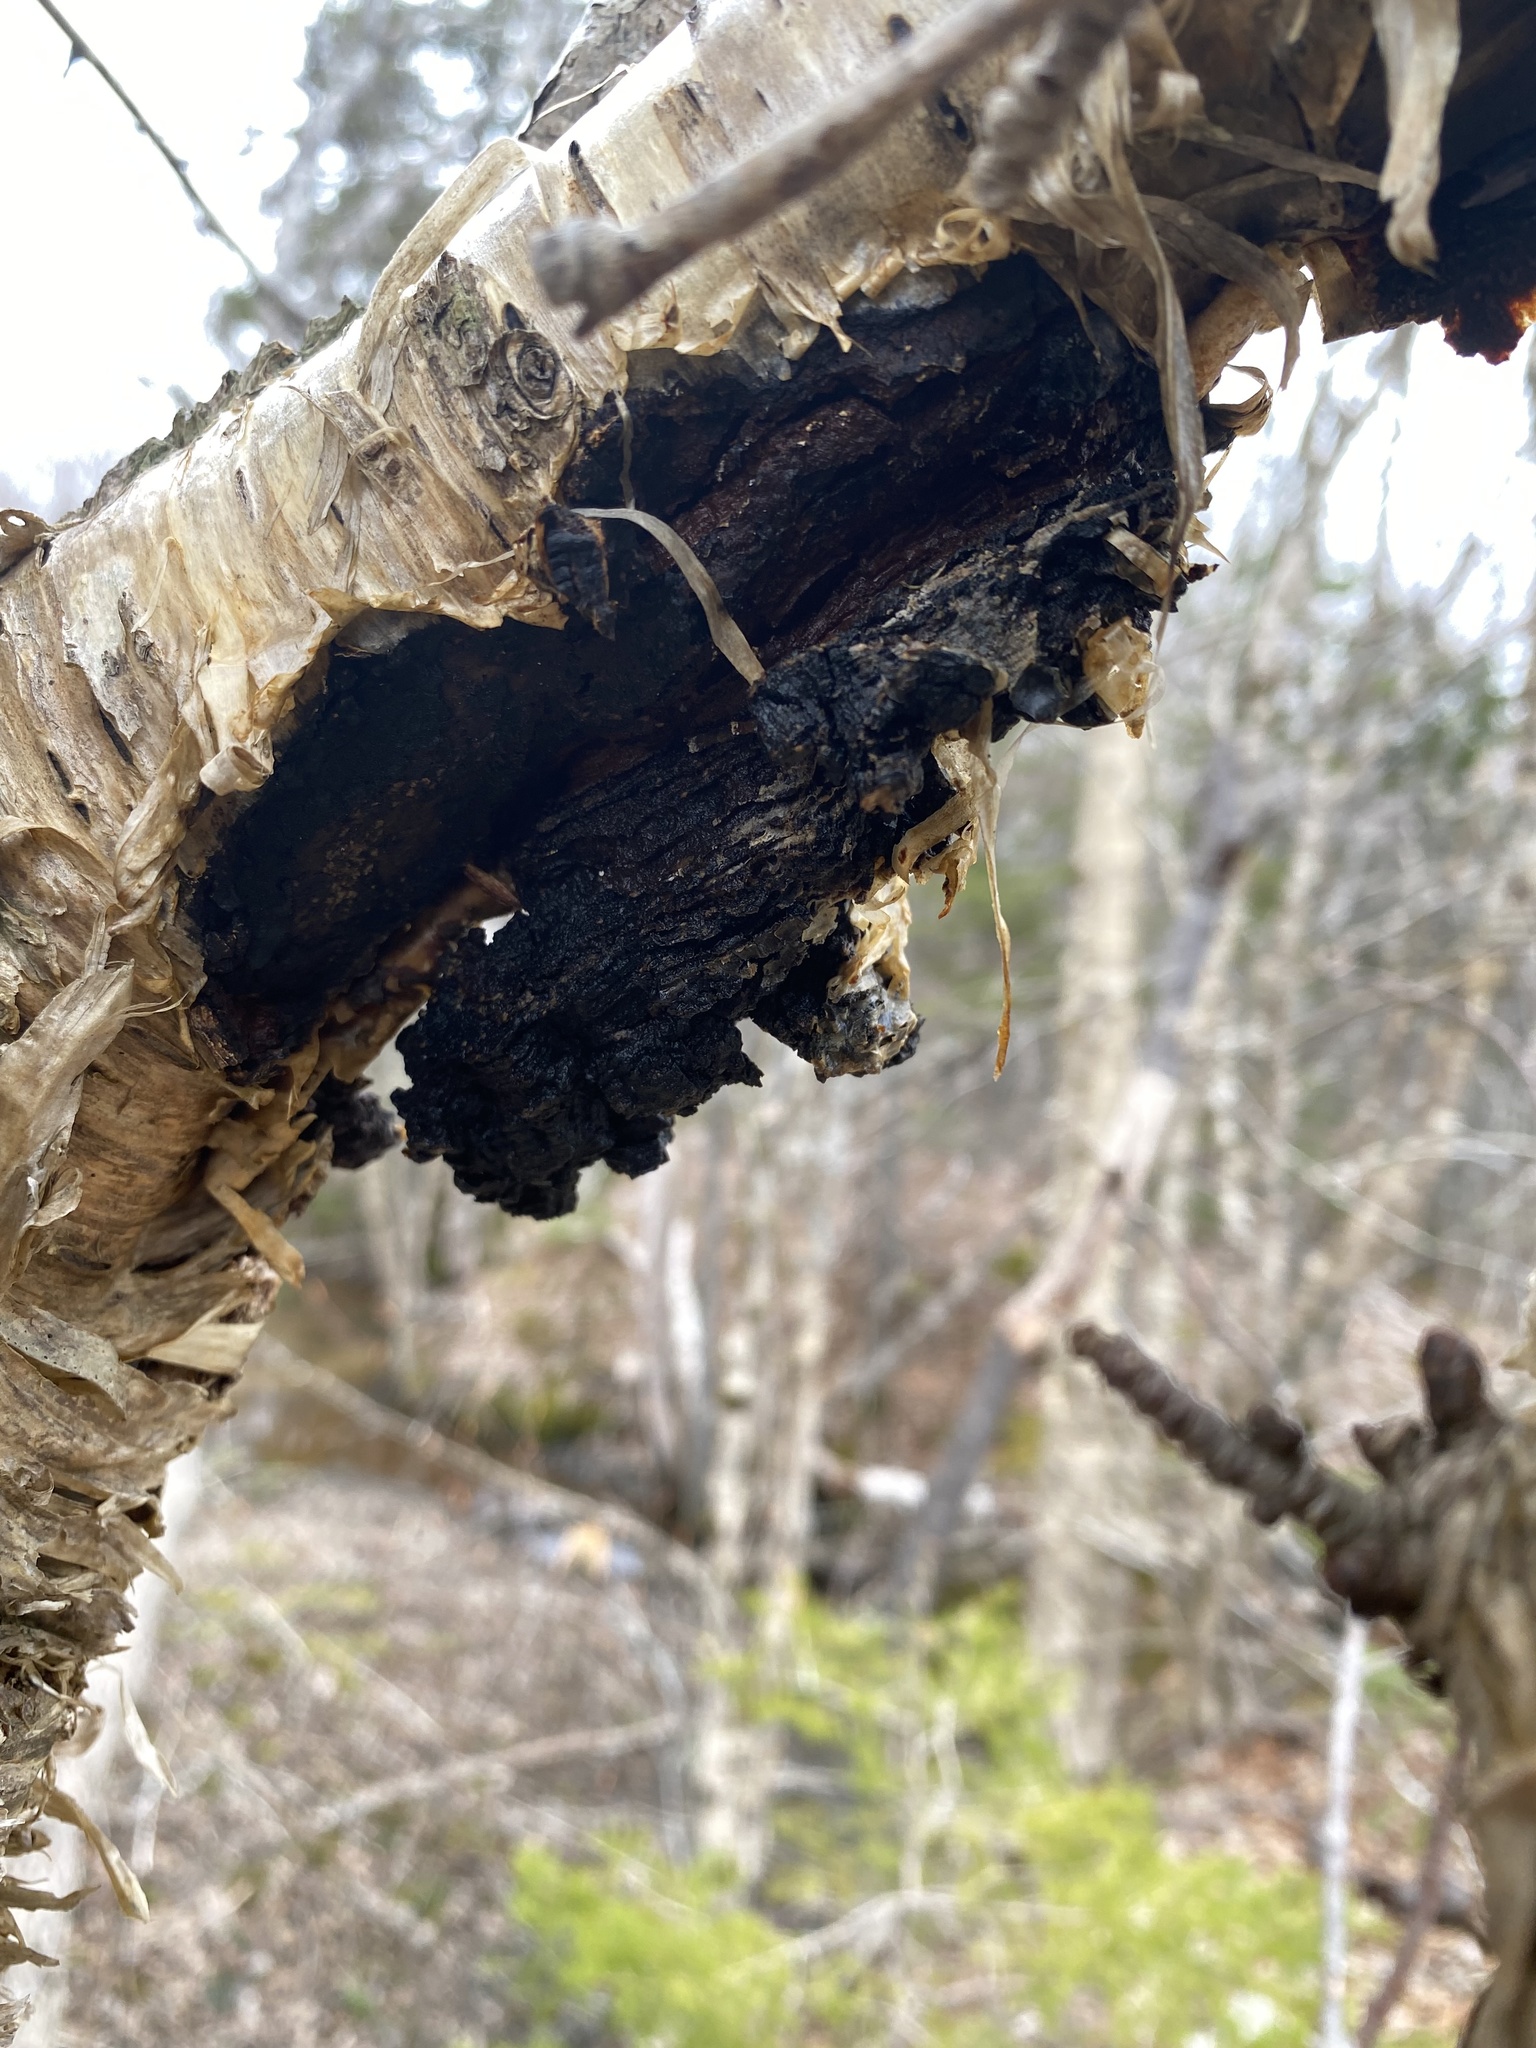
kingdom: Fungi
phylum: Basidiomycota
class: Agaricomycetes
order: Hymenochaetales
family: Hymenochaetaceae
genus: Inonotus
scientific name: Inonotus obliquus
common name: Chaga
